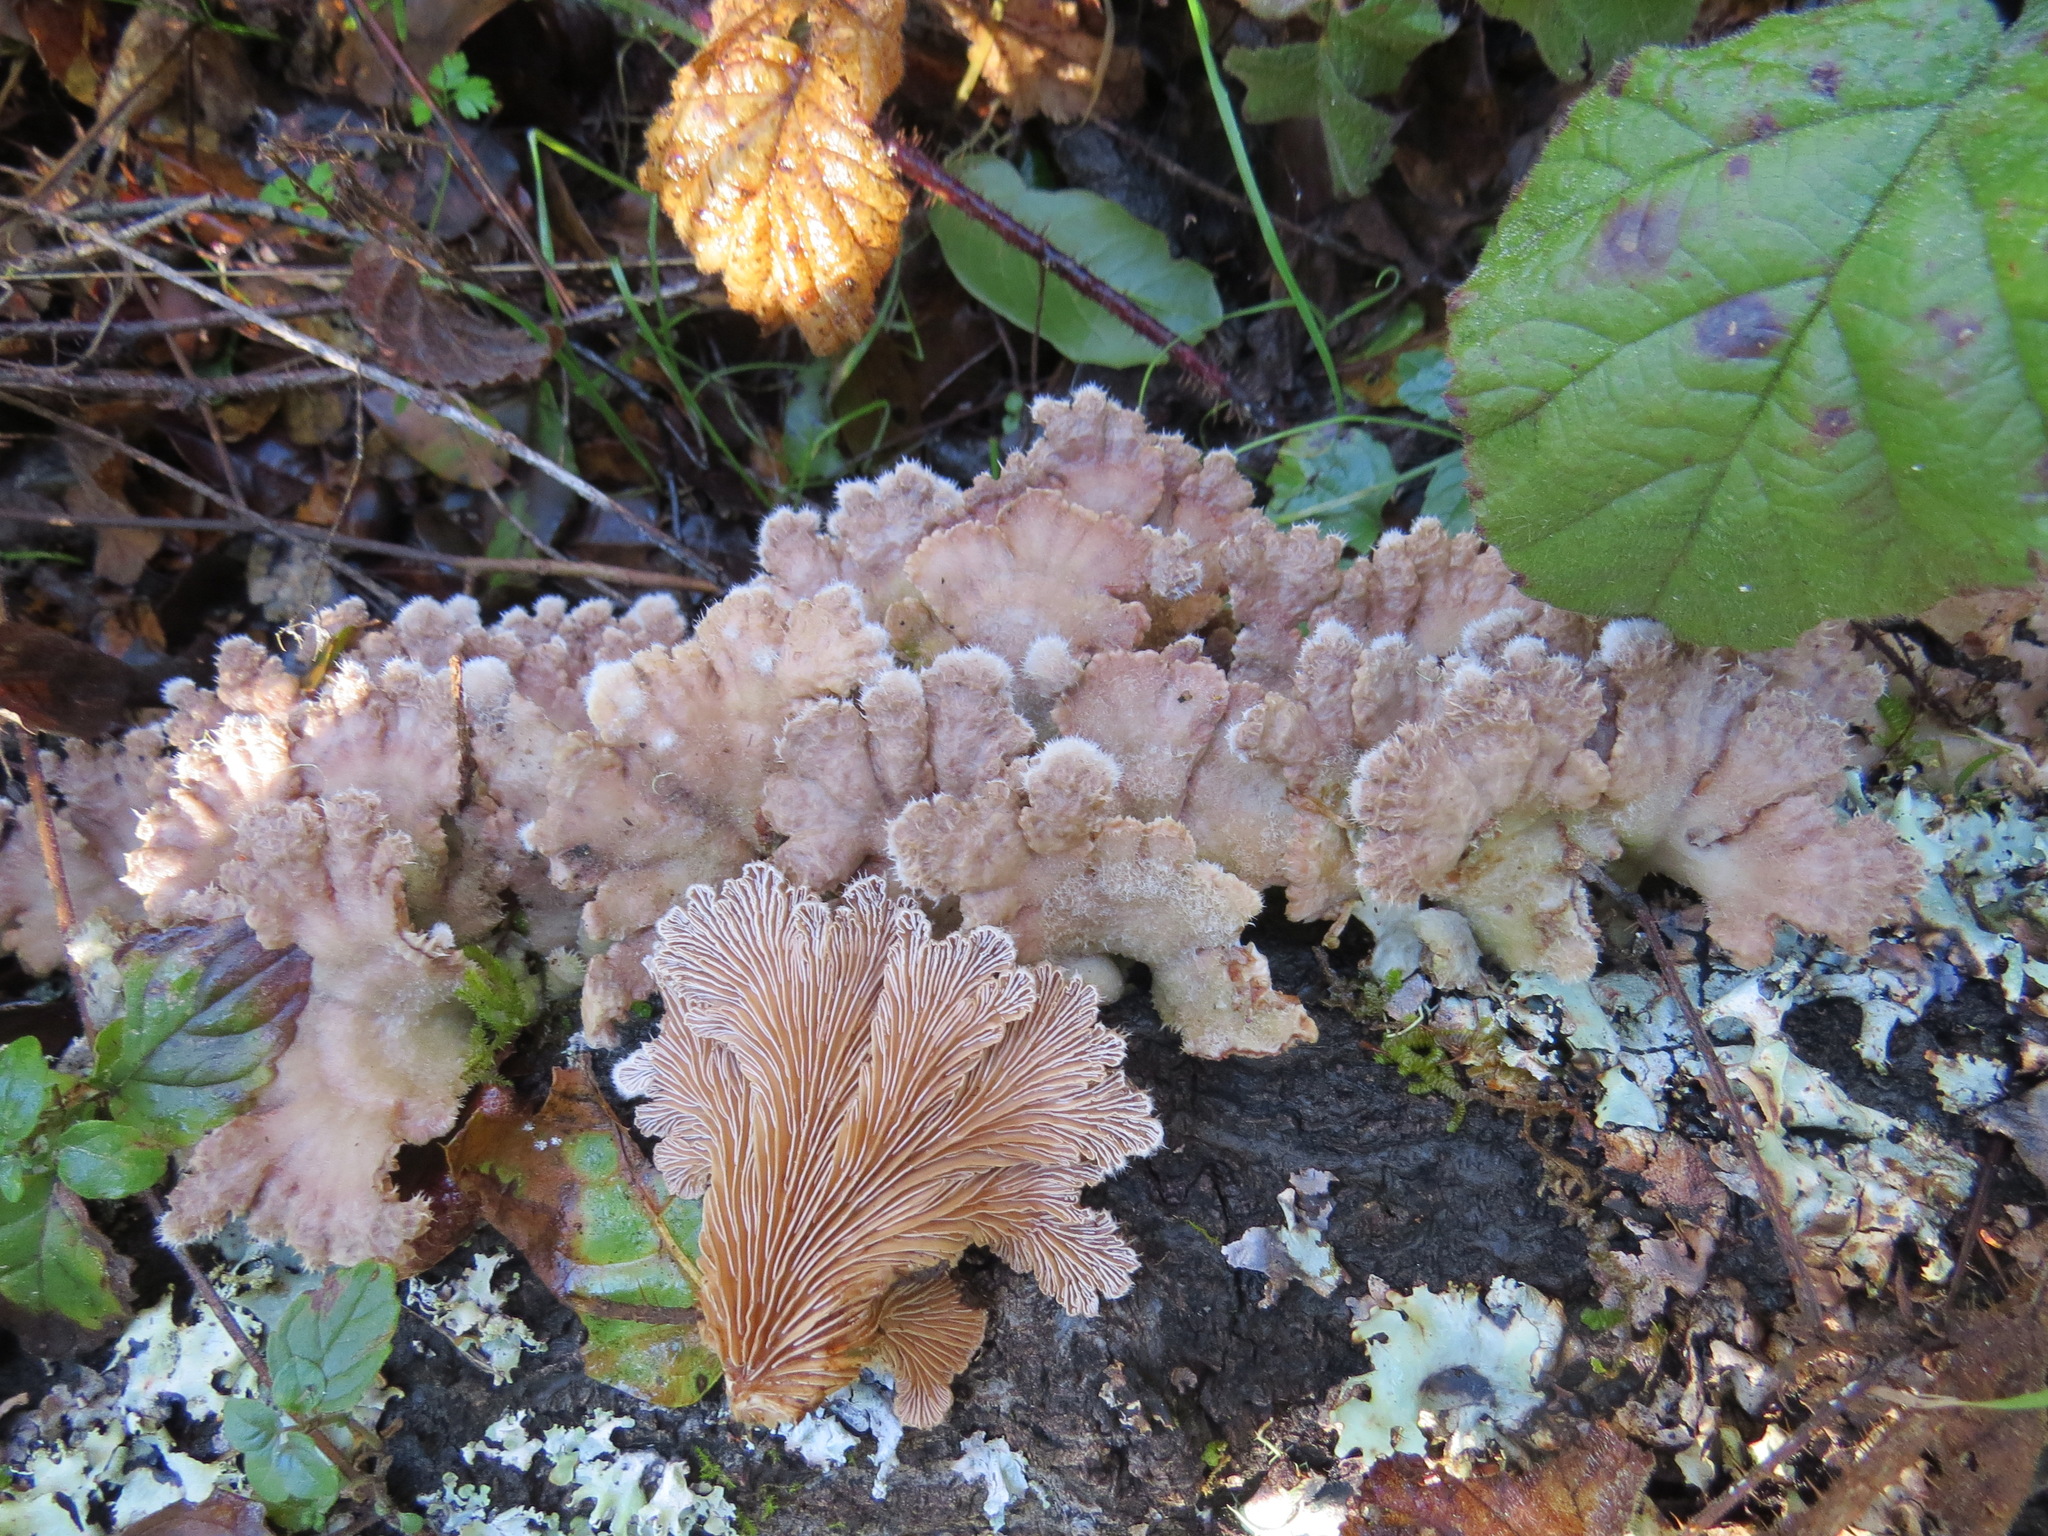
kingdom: Fungi
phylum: Basidiomycota
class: Agaricomycetes
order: Agaricales
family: Schizophyllaceae
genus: Schizophyllum
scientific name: Schizophyllum commune
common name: Common porecrust
